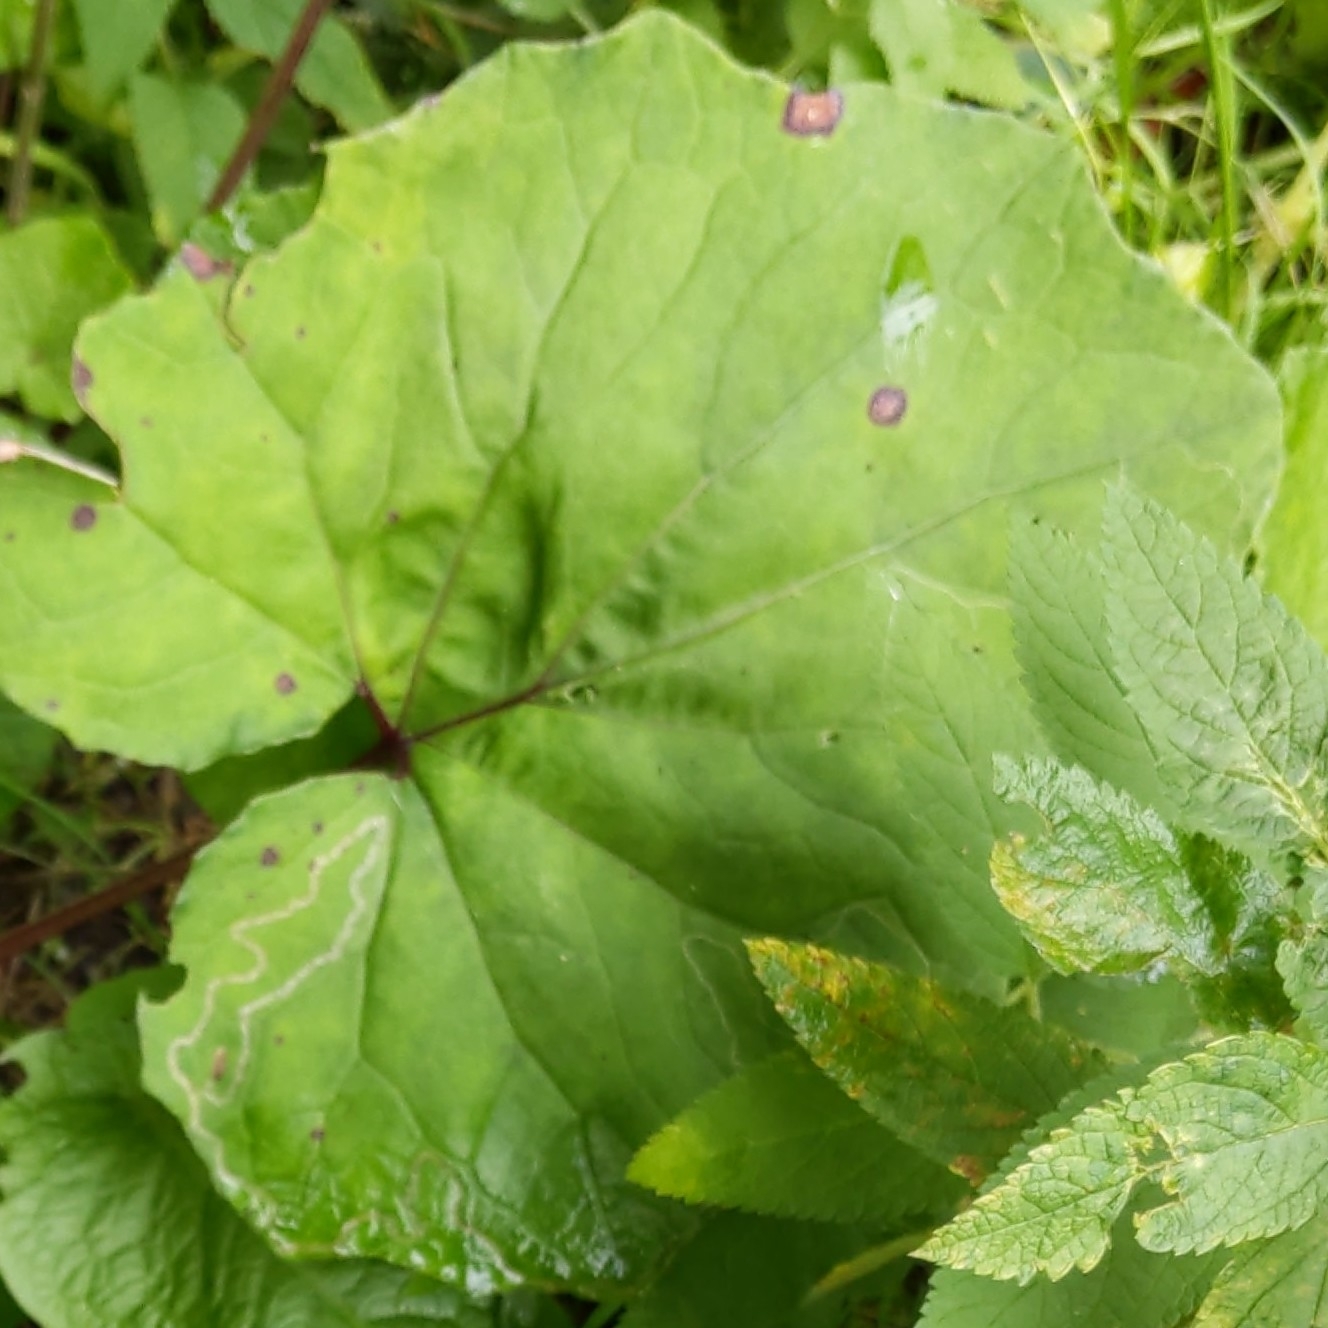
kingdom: Animalia
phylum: Arthropoda
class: Insecta
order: Lepidoptera
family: Gracillariidae
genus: Phyllocnistis
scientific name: Phyllocnistis insignis
